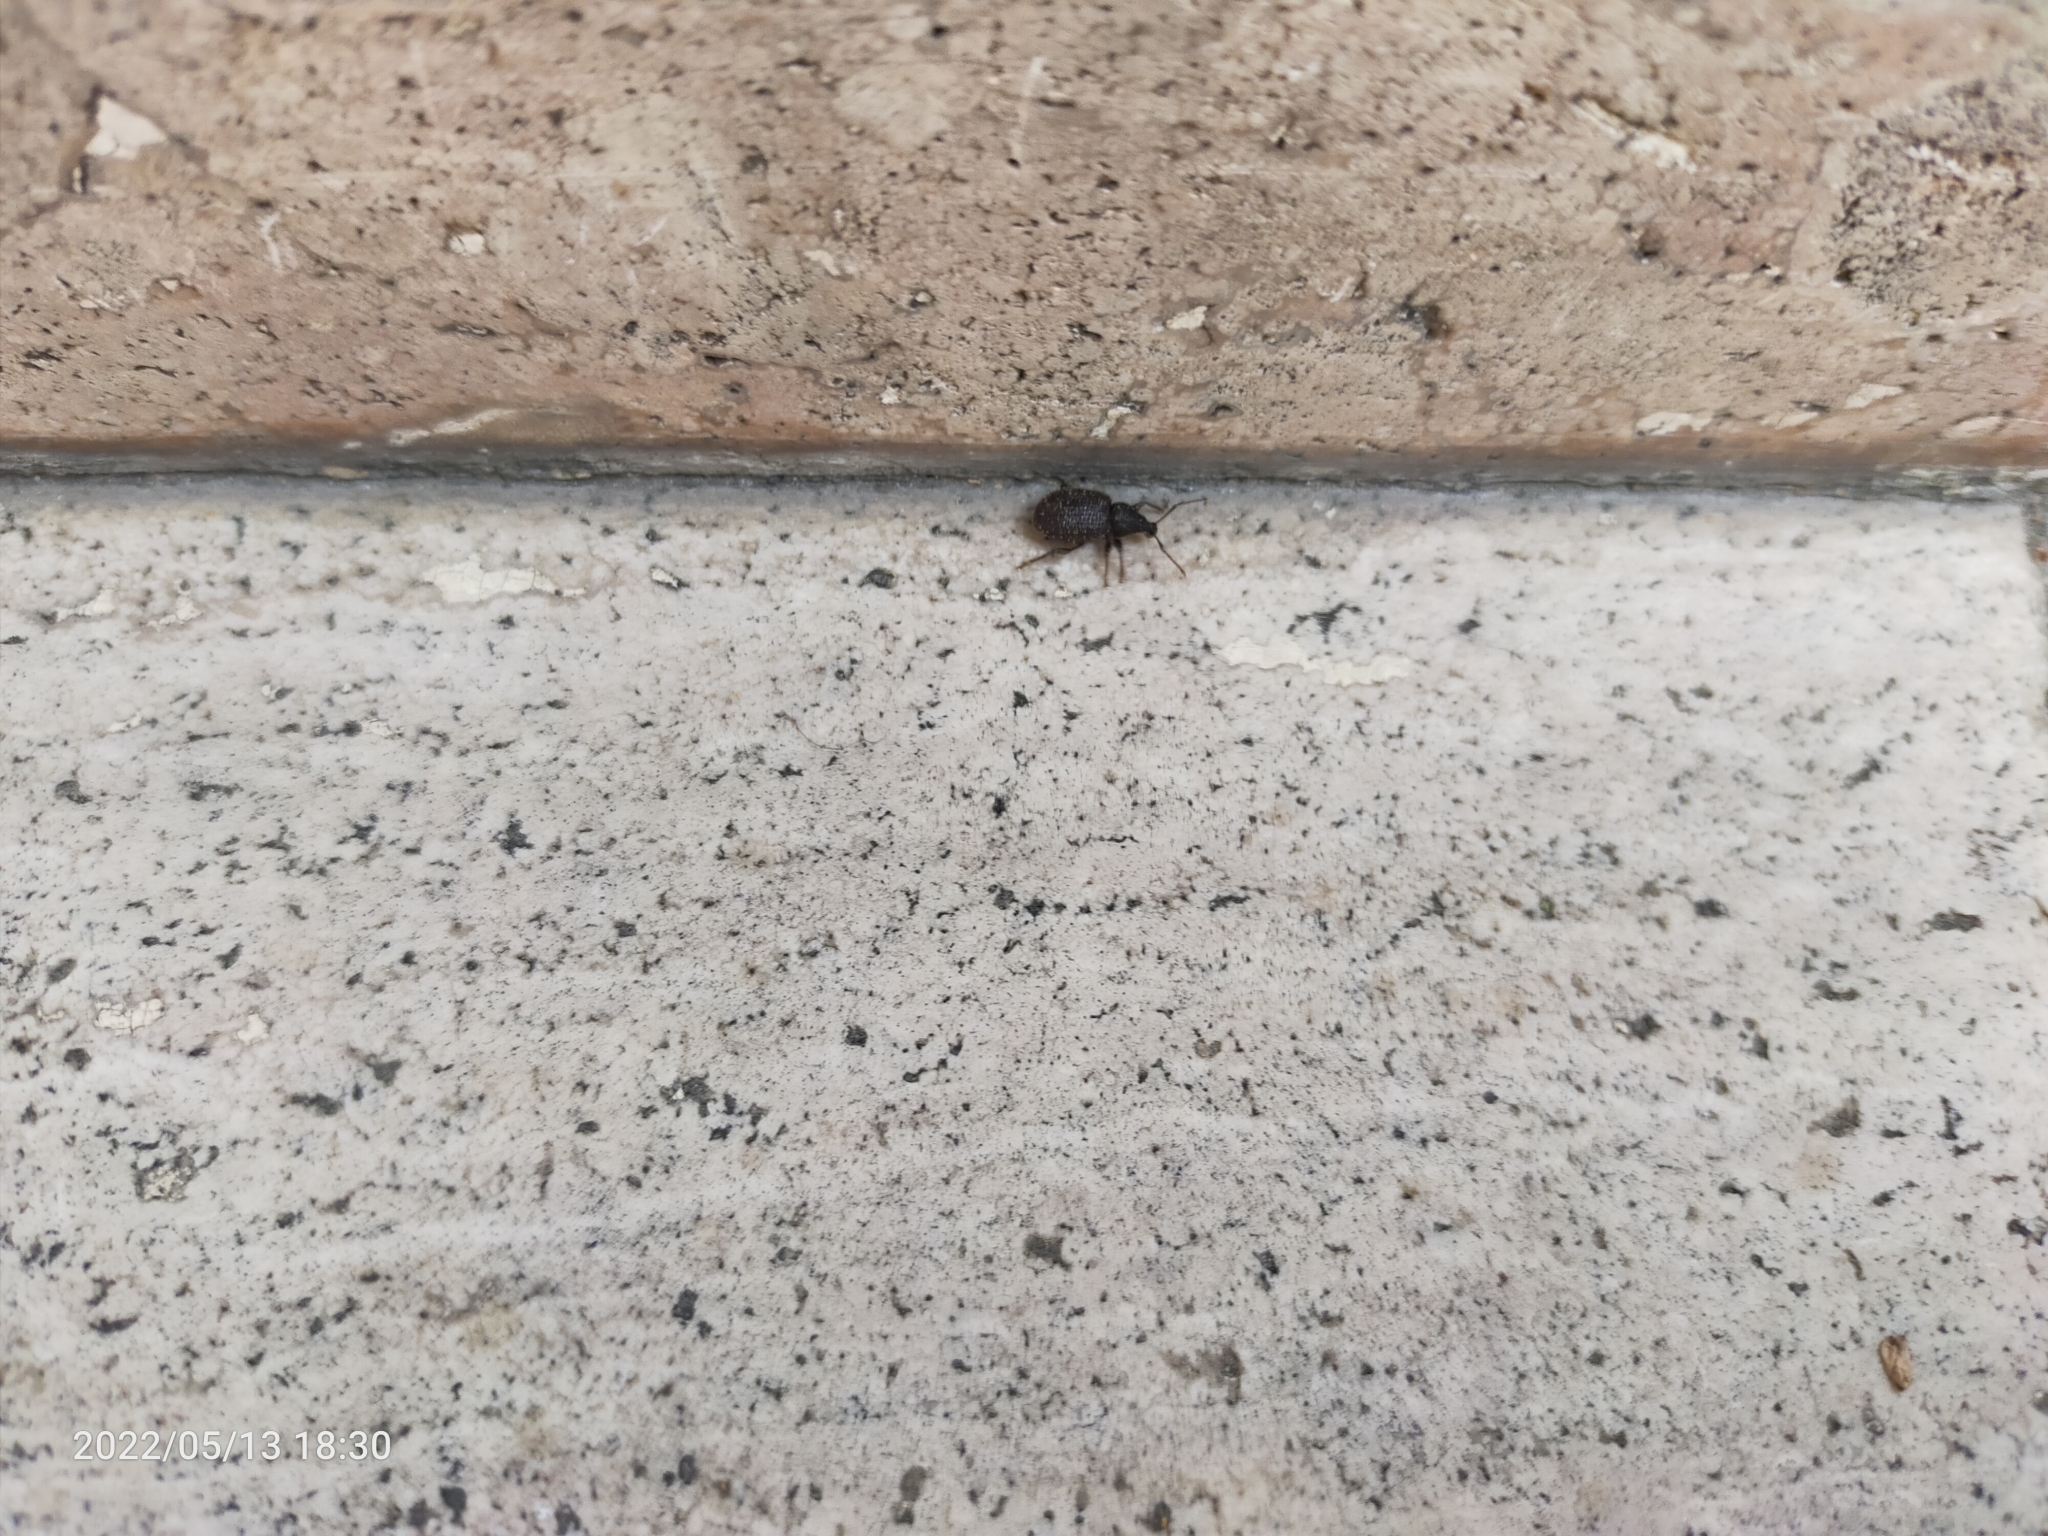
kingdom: Animalia
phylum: Arthropoda
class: Insecta
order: Coleoptera
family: Curculionidae
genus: Otiorhynchus
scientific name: Otiorhynchus
